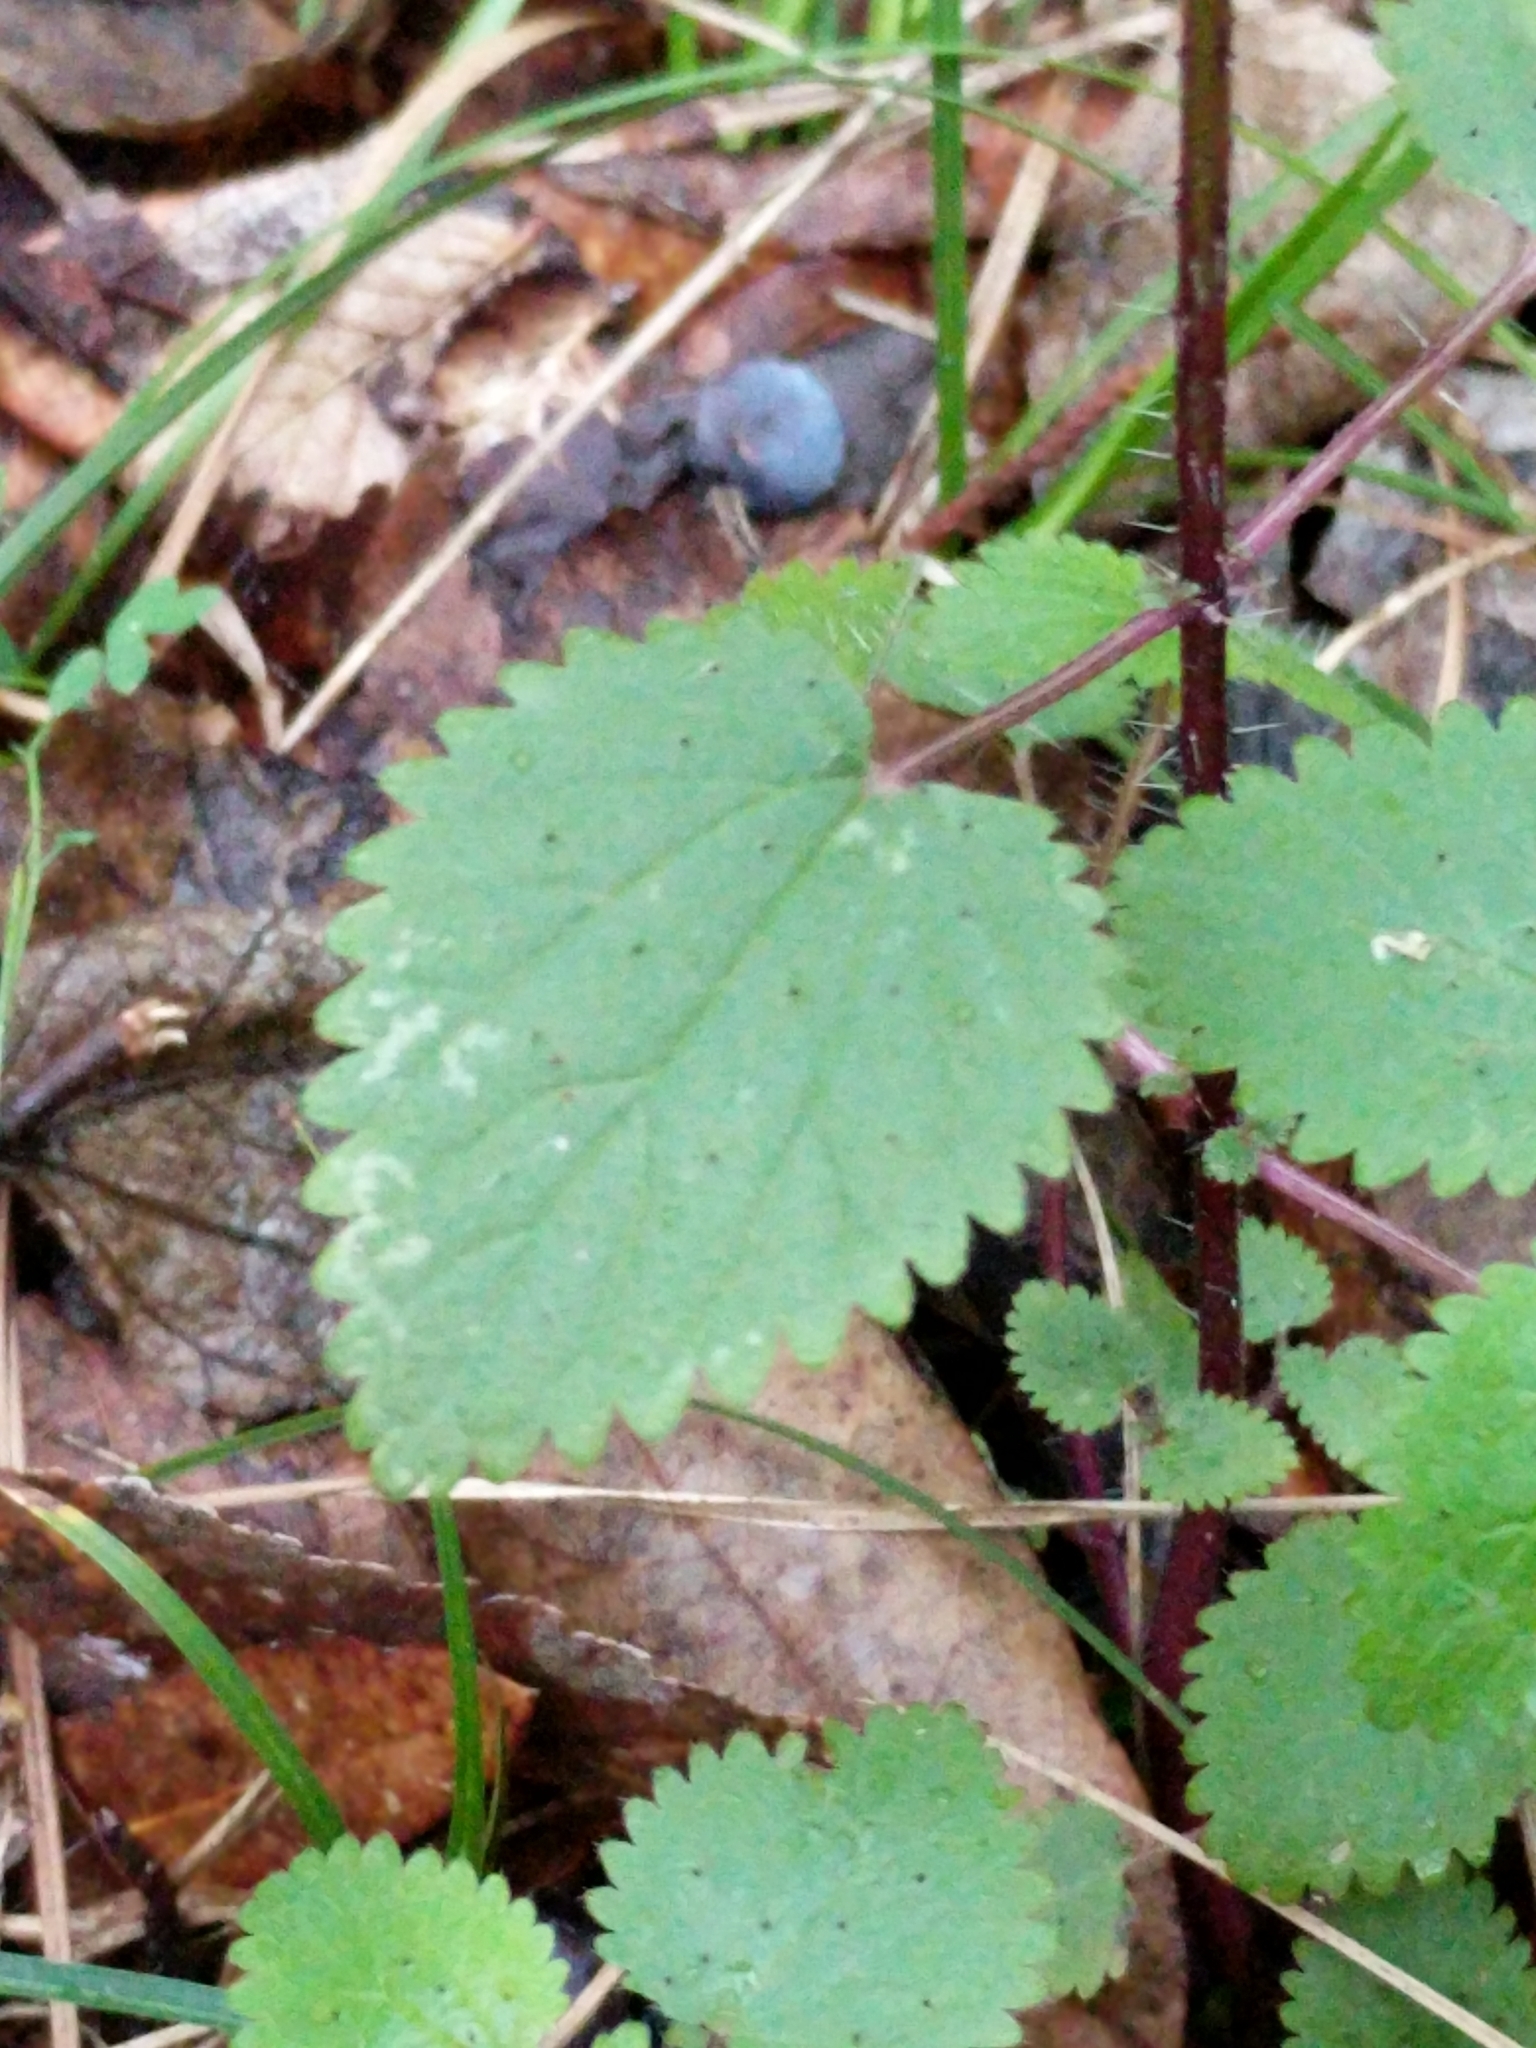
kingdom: Plantae
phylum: Tracheophyta
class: Magnoliopsida
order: Rosales
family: Urticaceae
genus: Urtica
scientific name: Urtica chamaedryoides
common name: Heart-leaf nettle
